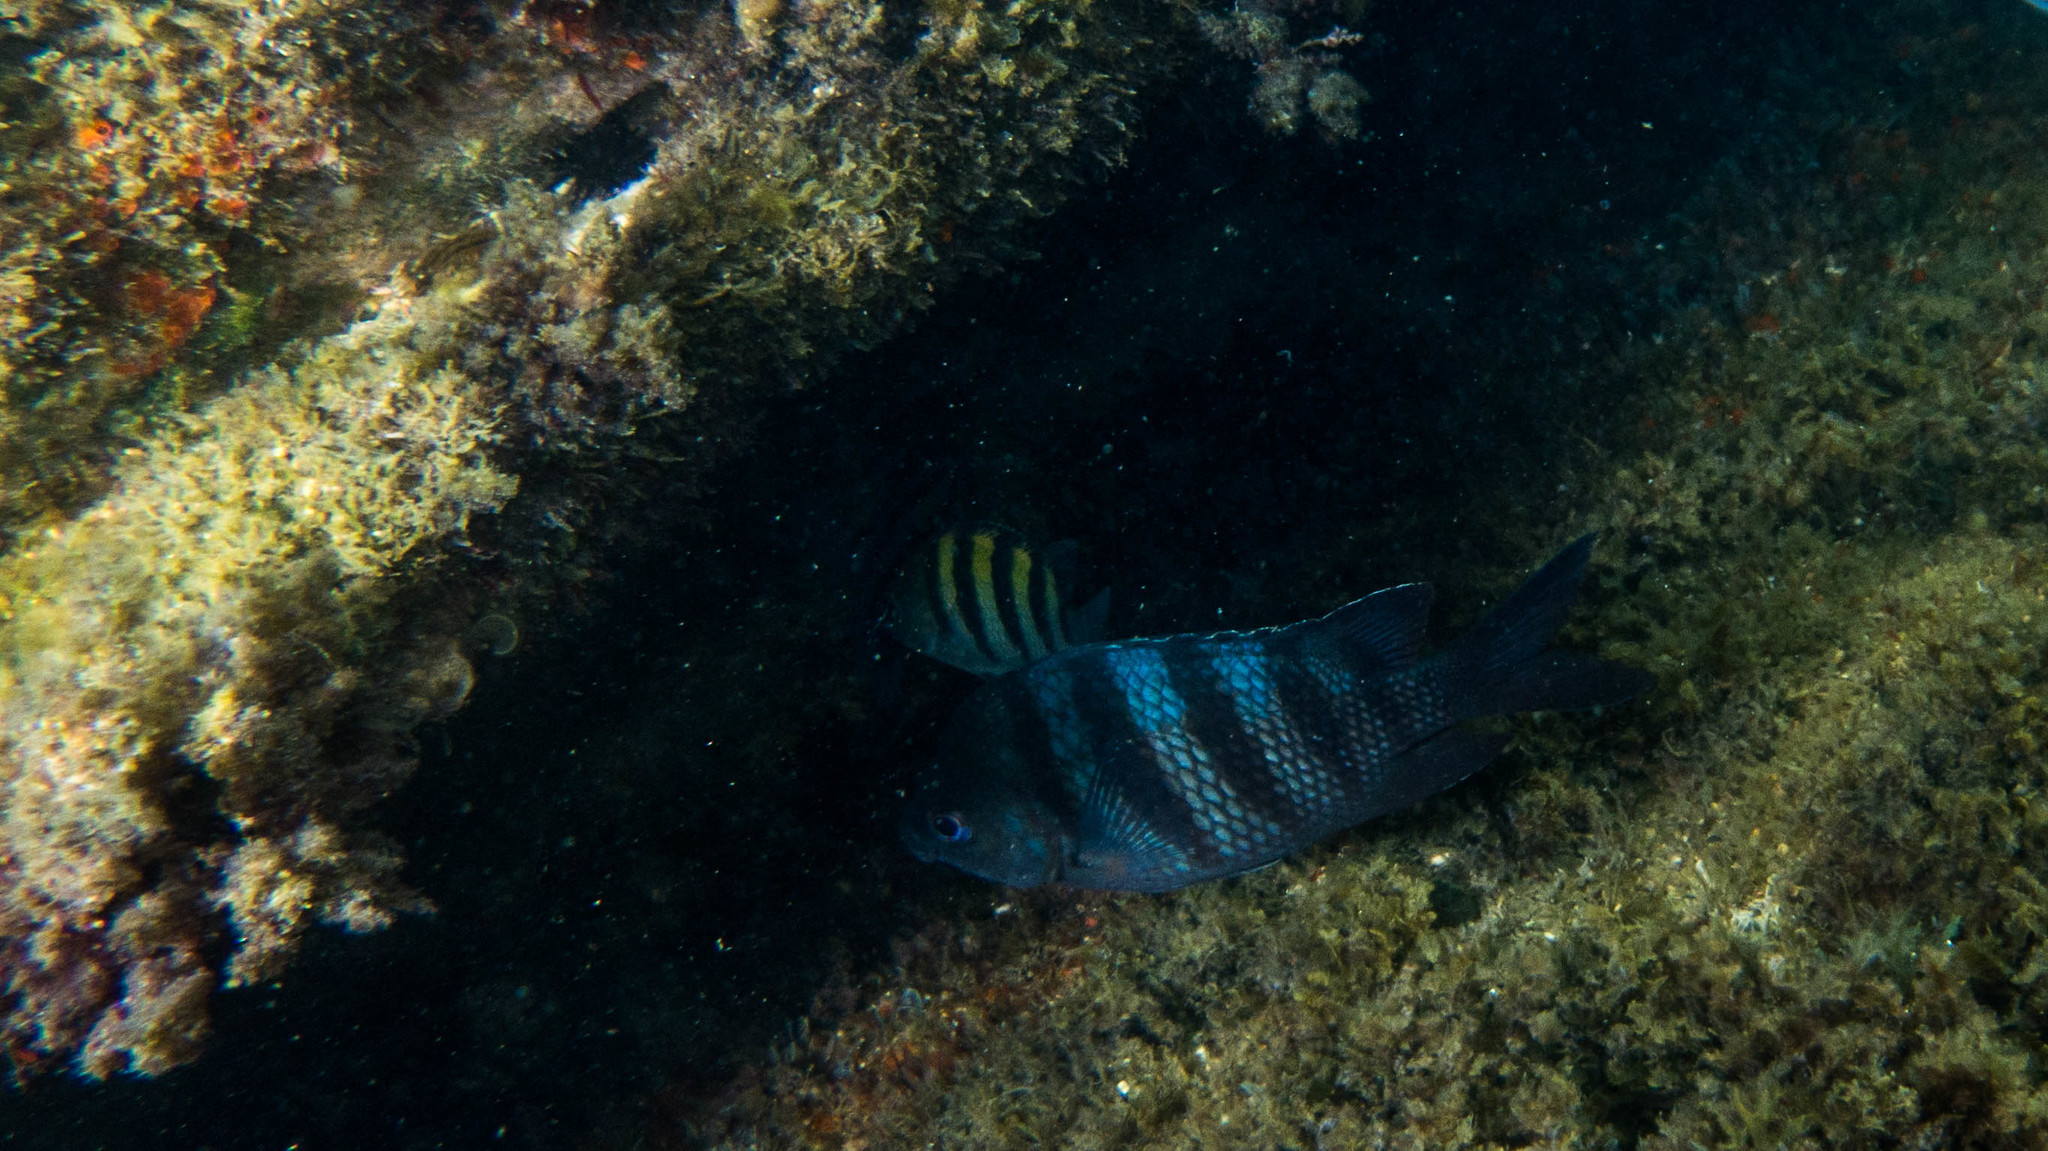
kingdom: Animalia
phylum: Chordata
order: Perciformes
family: Pomacentridae
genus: Abudefduf
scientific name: Abudefduf saxatilis
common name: Sergeant major
